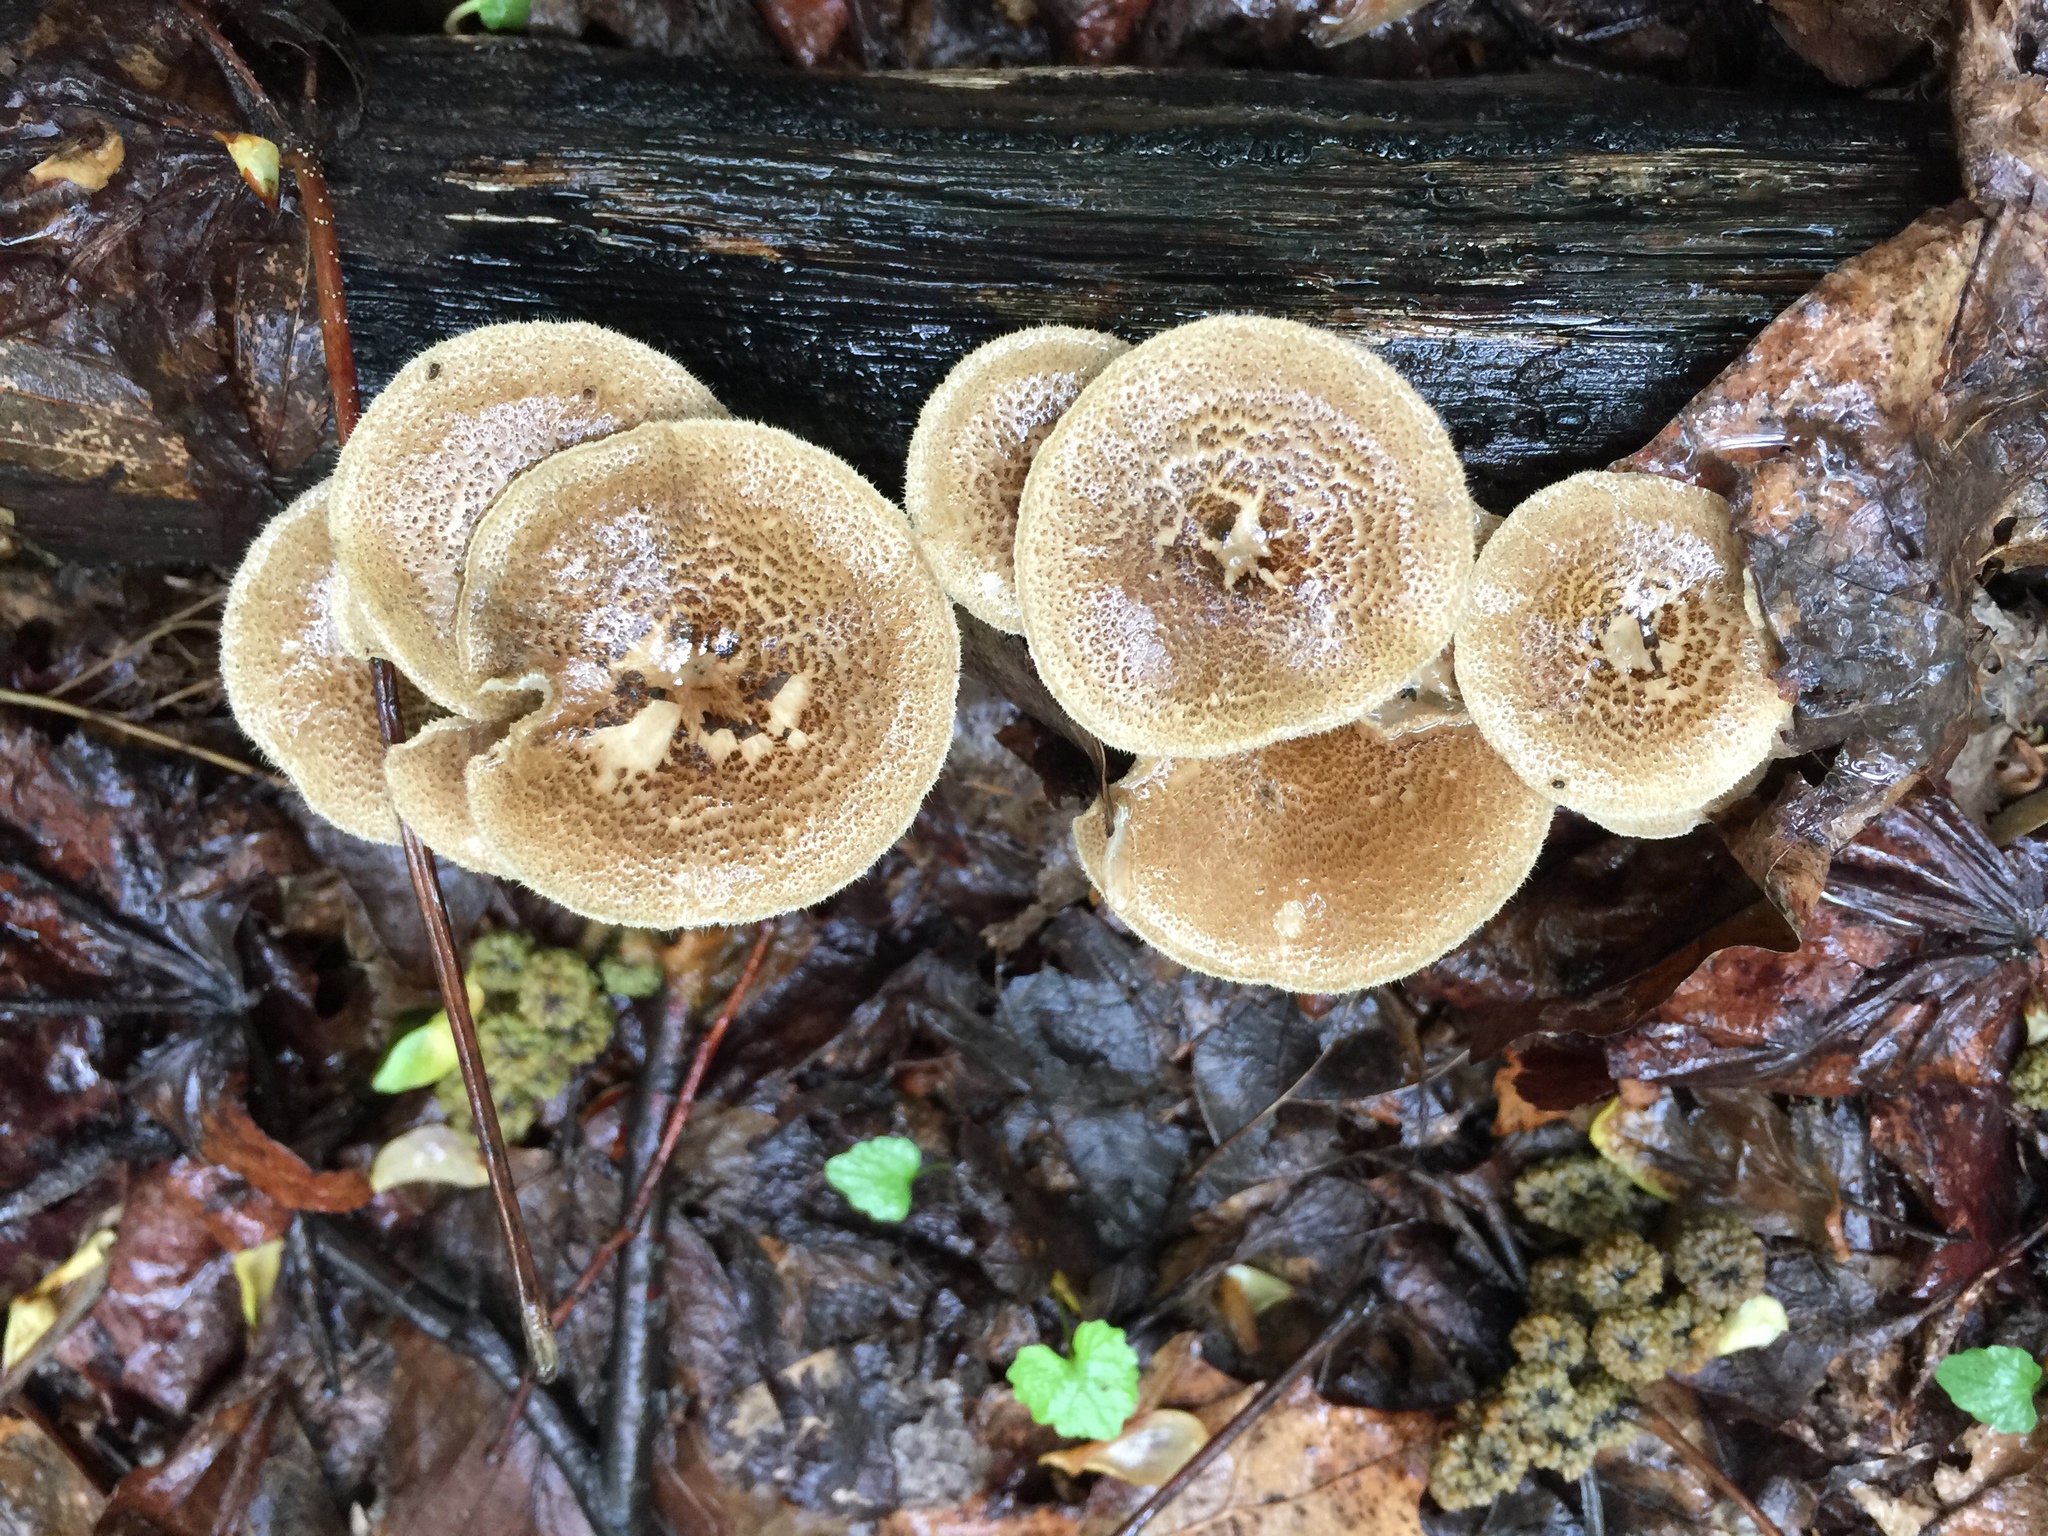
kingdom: Fungi
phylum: Basidiomycota
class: Agaricomycetes
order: Polyporales
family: Polyporaceae
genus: Lentinus
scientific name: Lentinus arcularius
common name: Spring polypore
